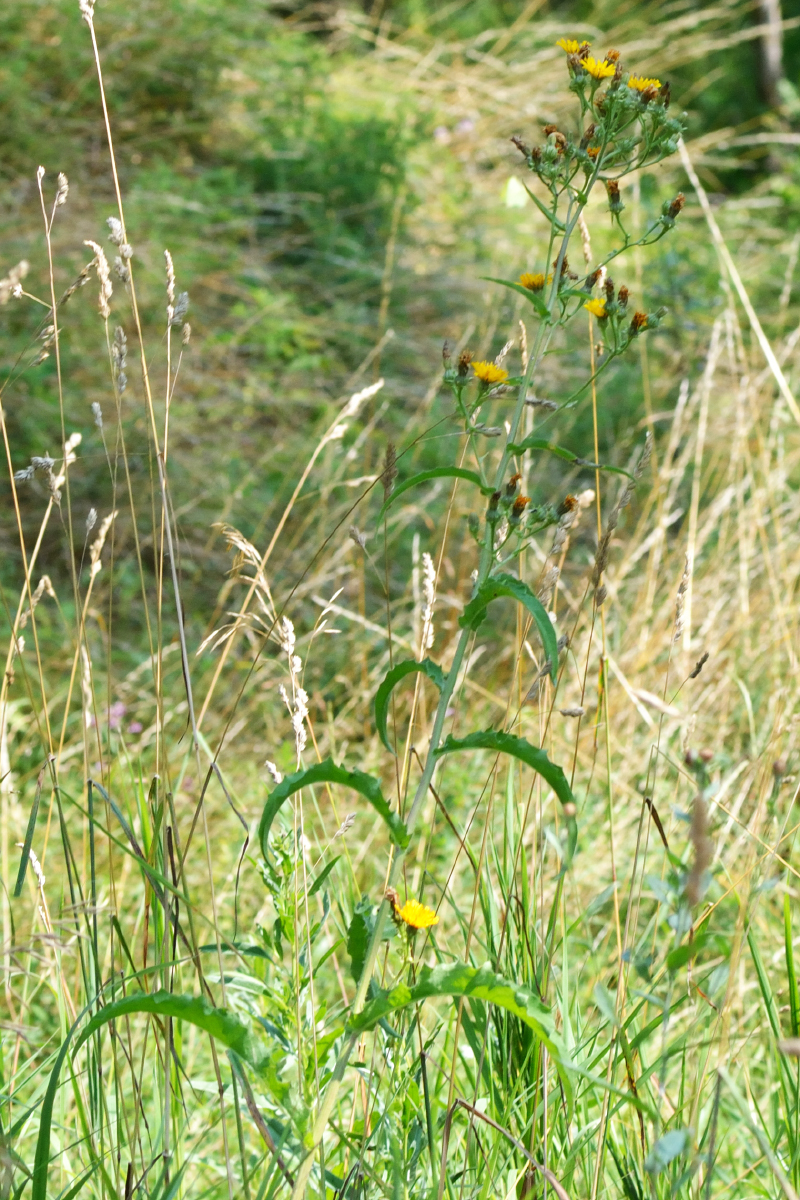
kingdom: Plantae
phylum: Tracheophyta
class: Magnoliopsida
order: Asterales
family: Asteraceae
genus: Picris
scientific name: Picris hieracioides
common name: Hawkweed oxtongue
